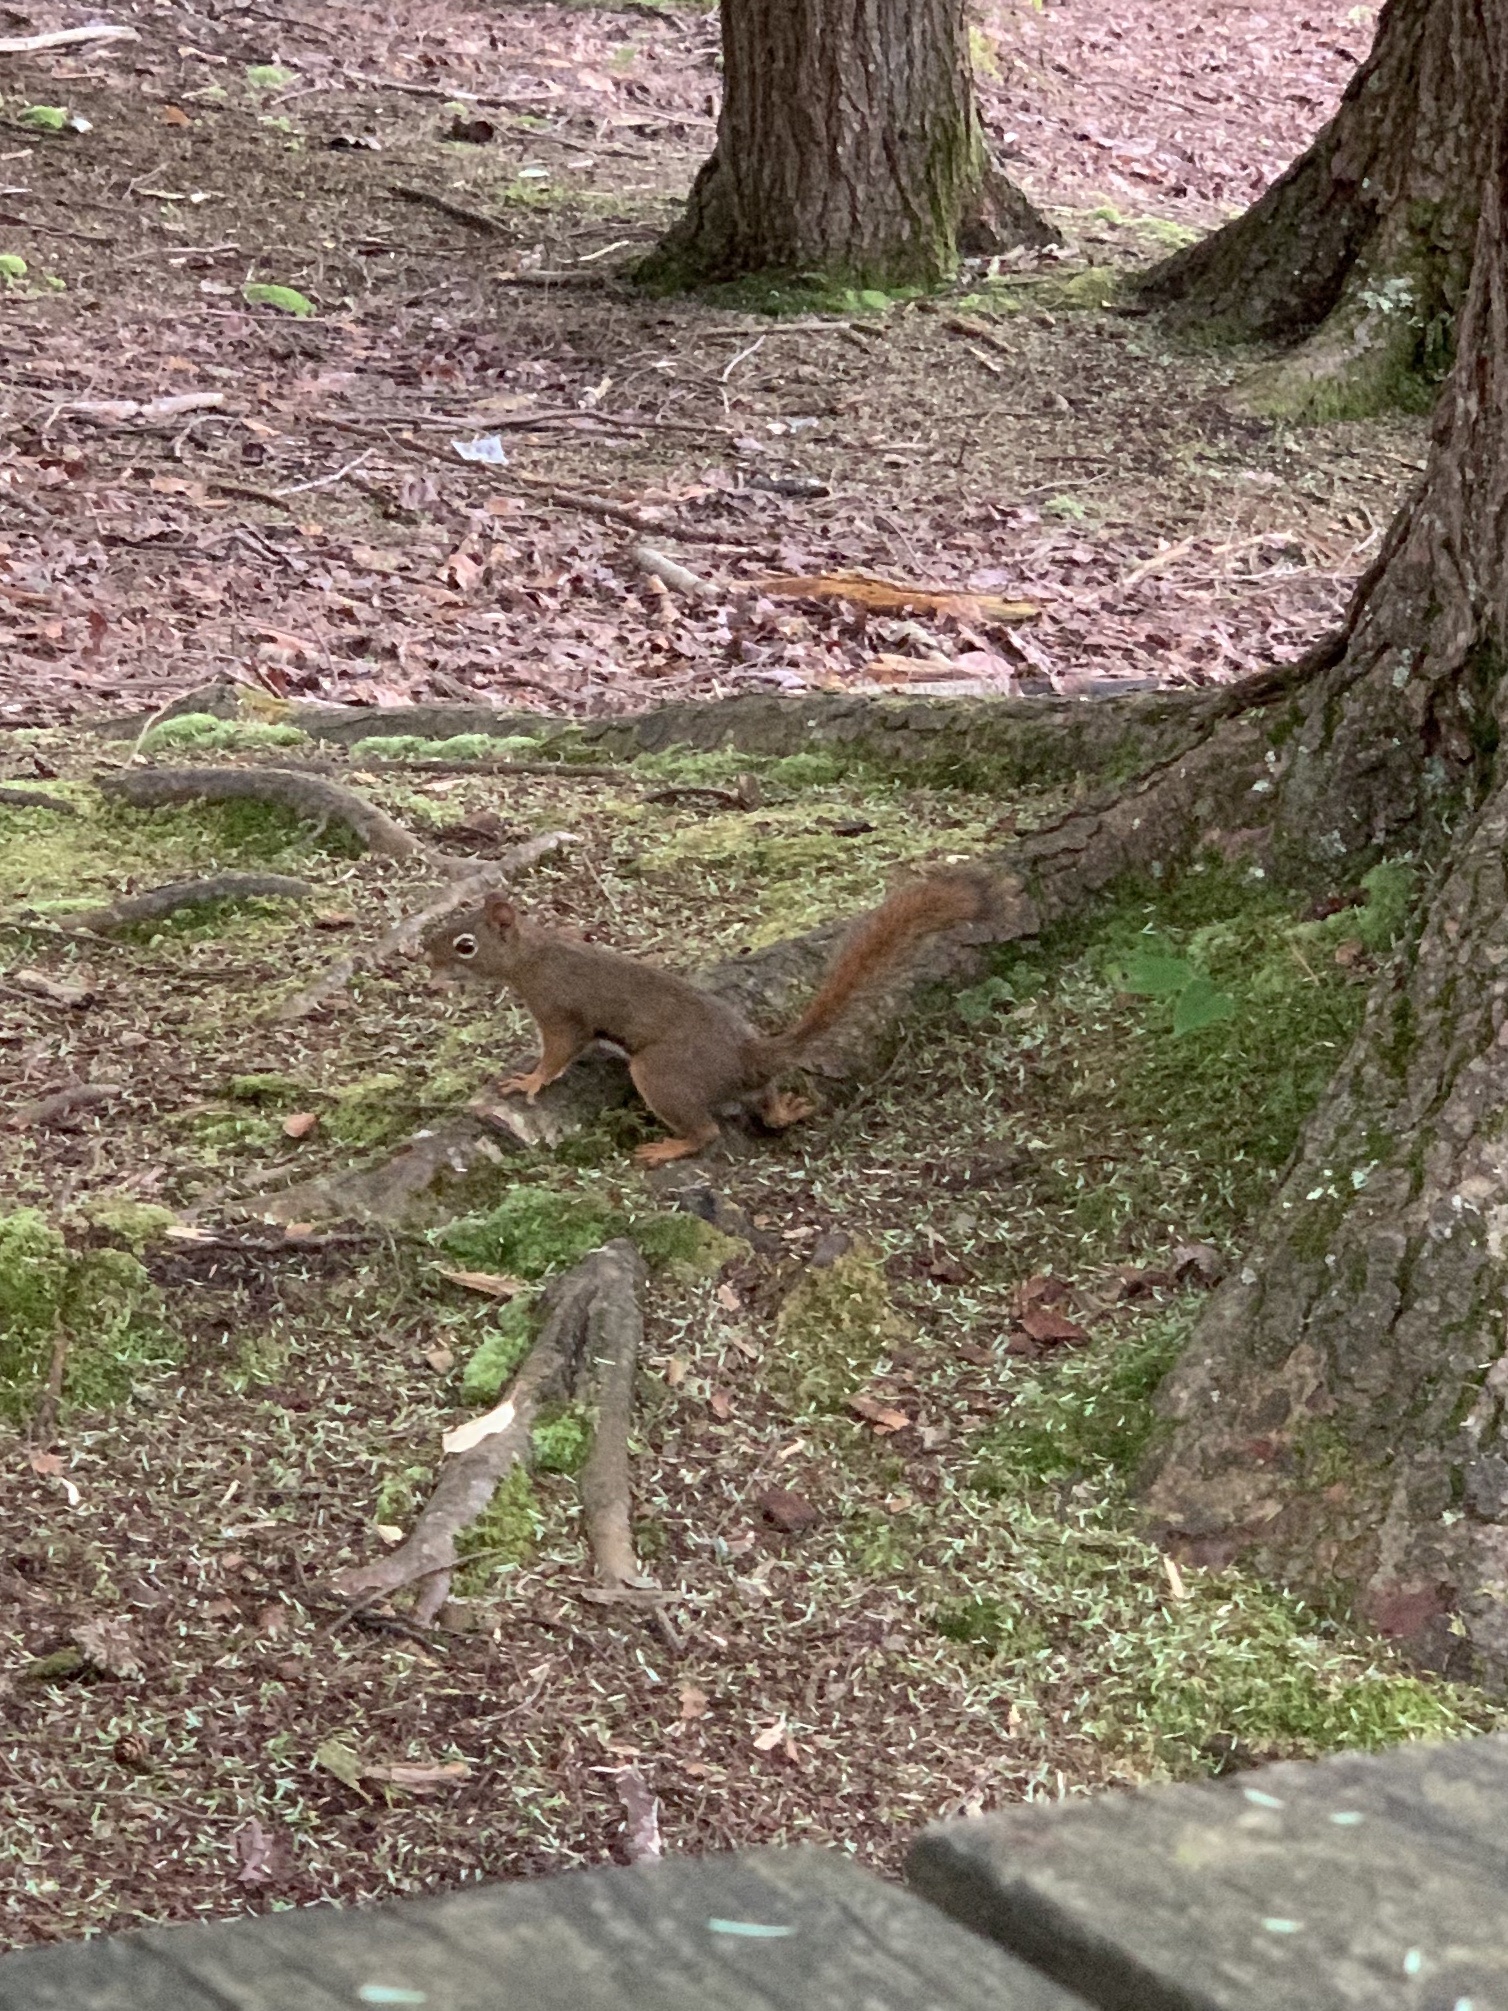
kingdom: Animalia
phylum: Chordata
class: Mammalia
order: Rodentia
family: Sciuridae
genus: Tamiasciurus
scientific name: Tamiasciurus hudsonicus
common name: Red squirrel
